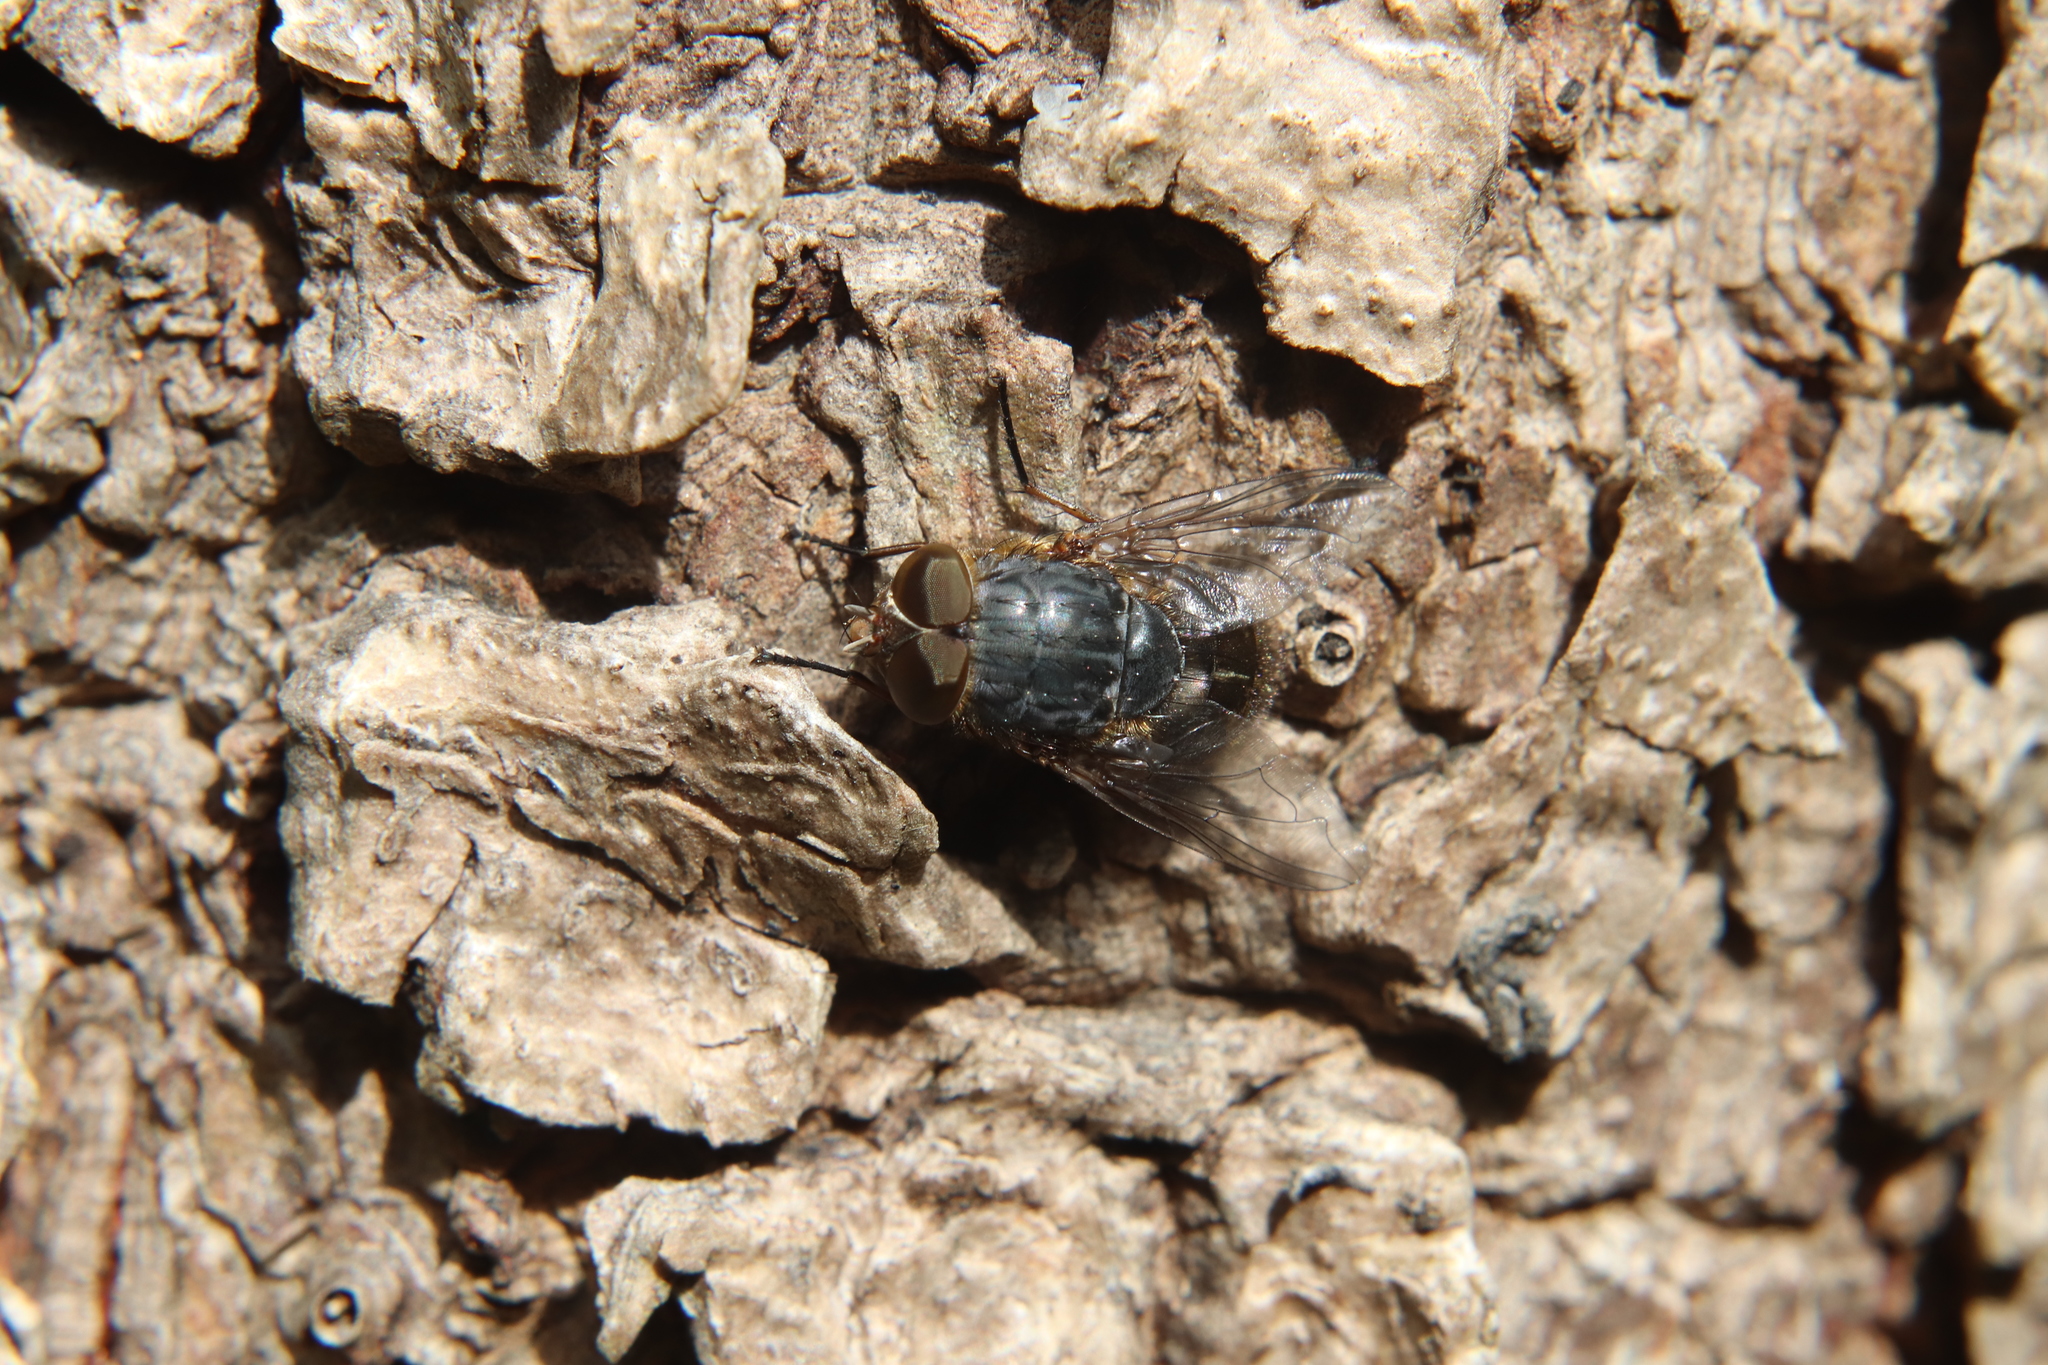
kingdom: Animalia
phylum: Arthropoda
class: Insecta
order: Diptera
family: Calliphoridae
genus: Calliphora
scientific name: Calliphora stygia
